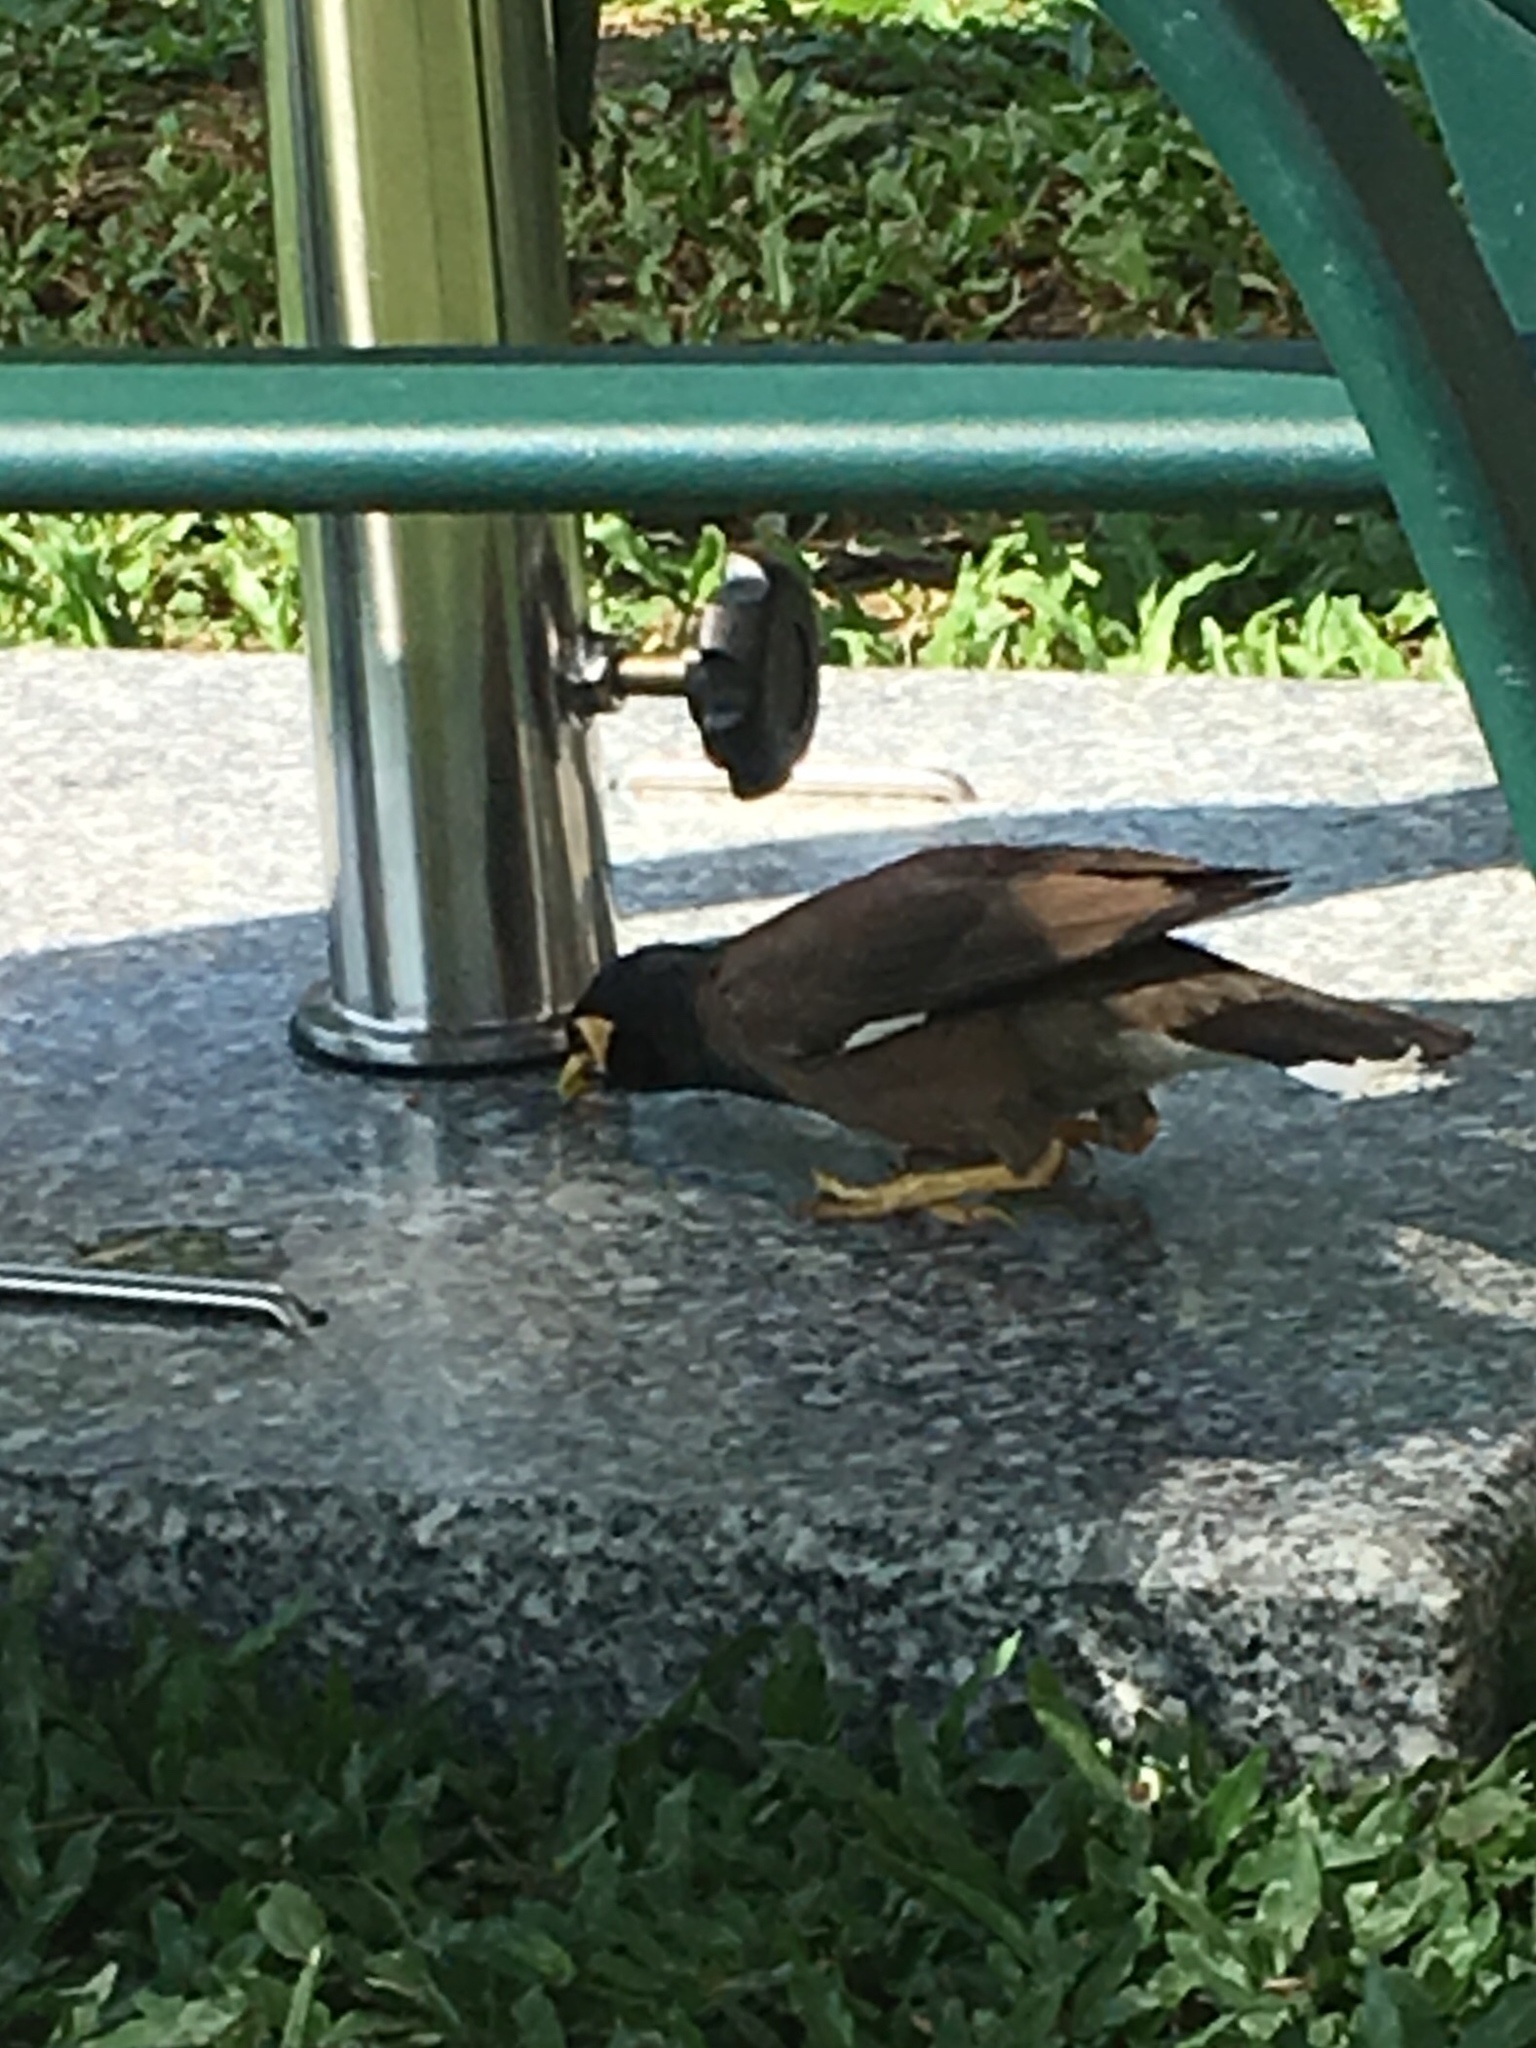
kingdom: Animalia
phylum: Chordata
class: Aves
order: Passeriformes
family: Sturnidae
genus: Acridotheres
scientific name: Acridotheres tristis
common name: Common myna
